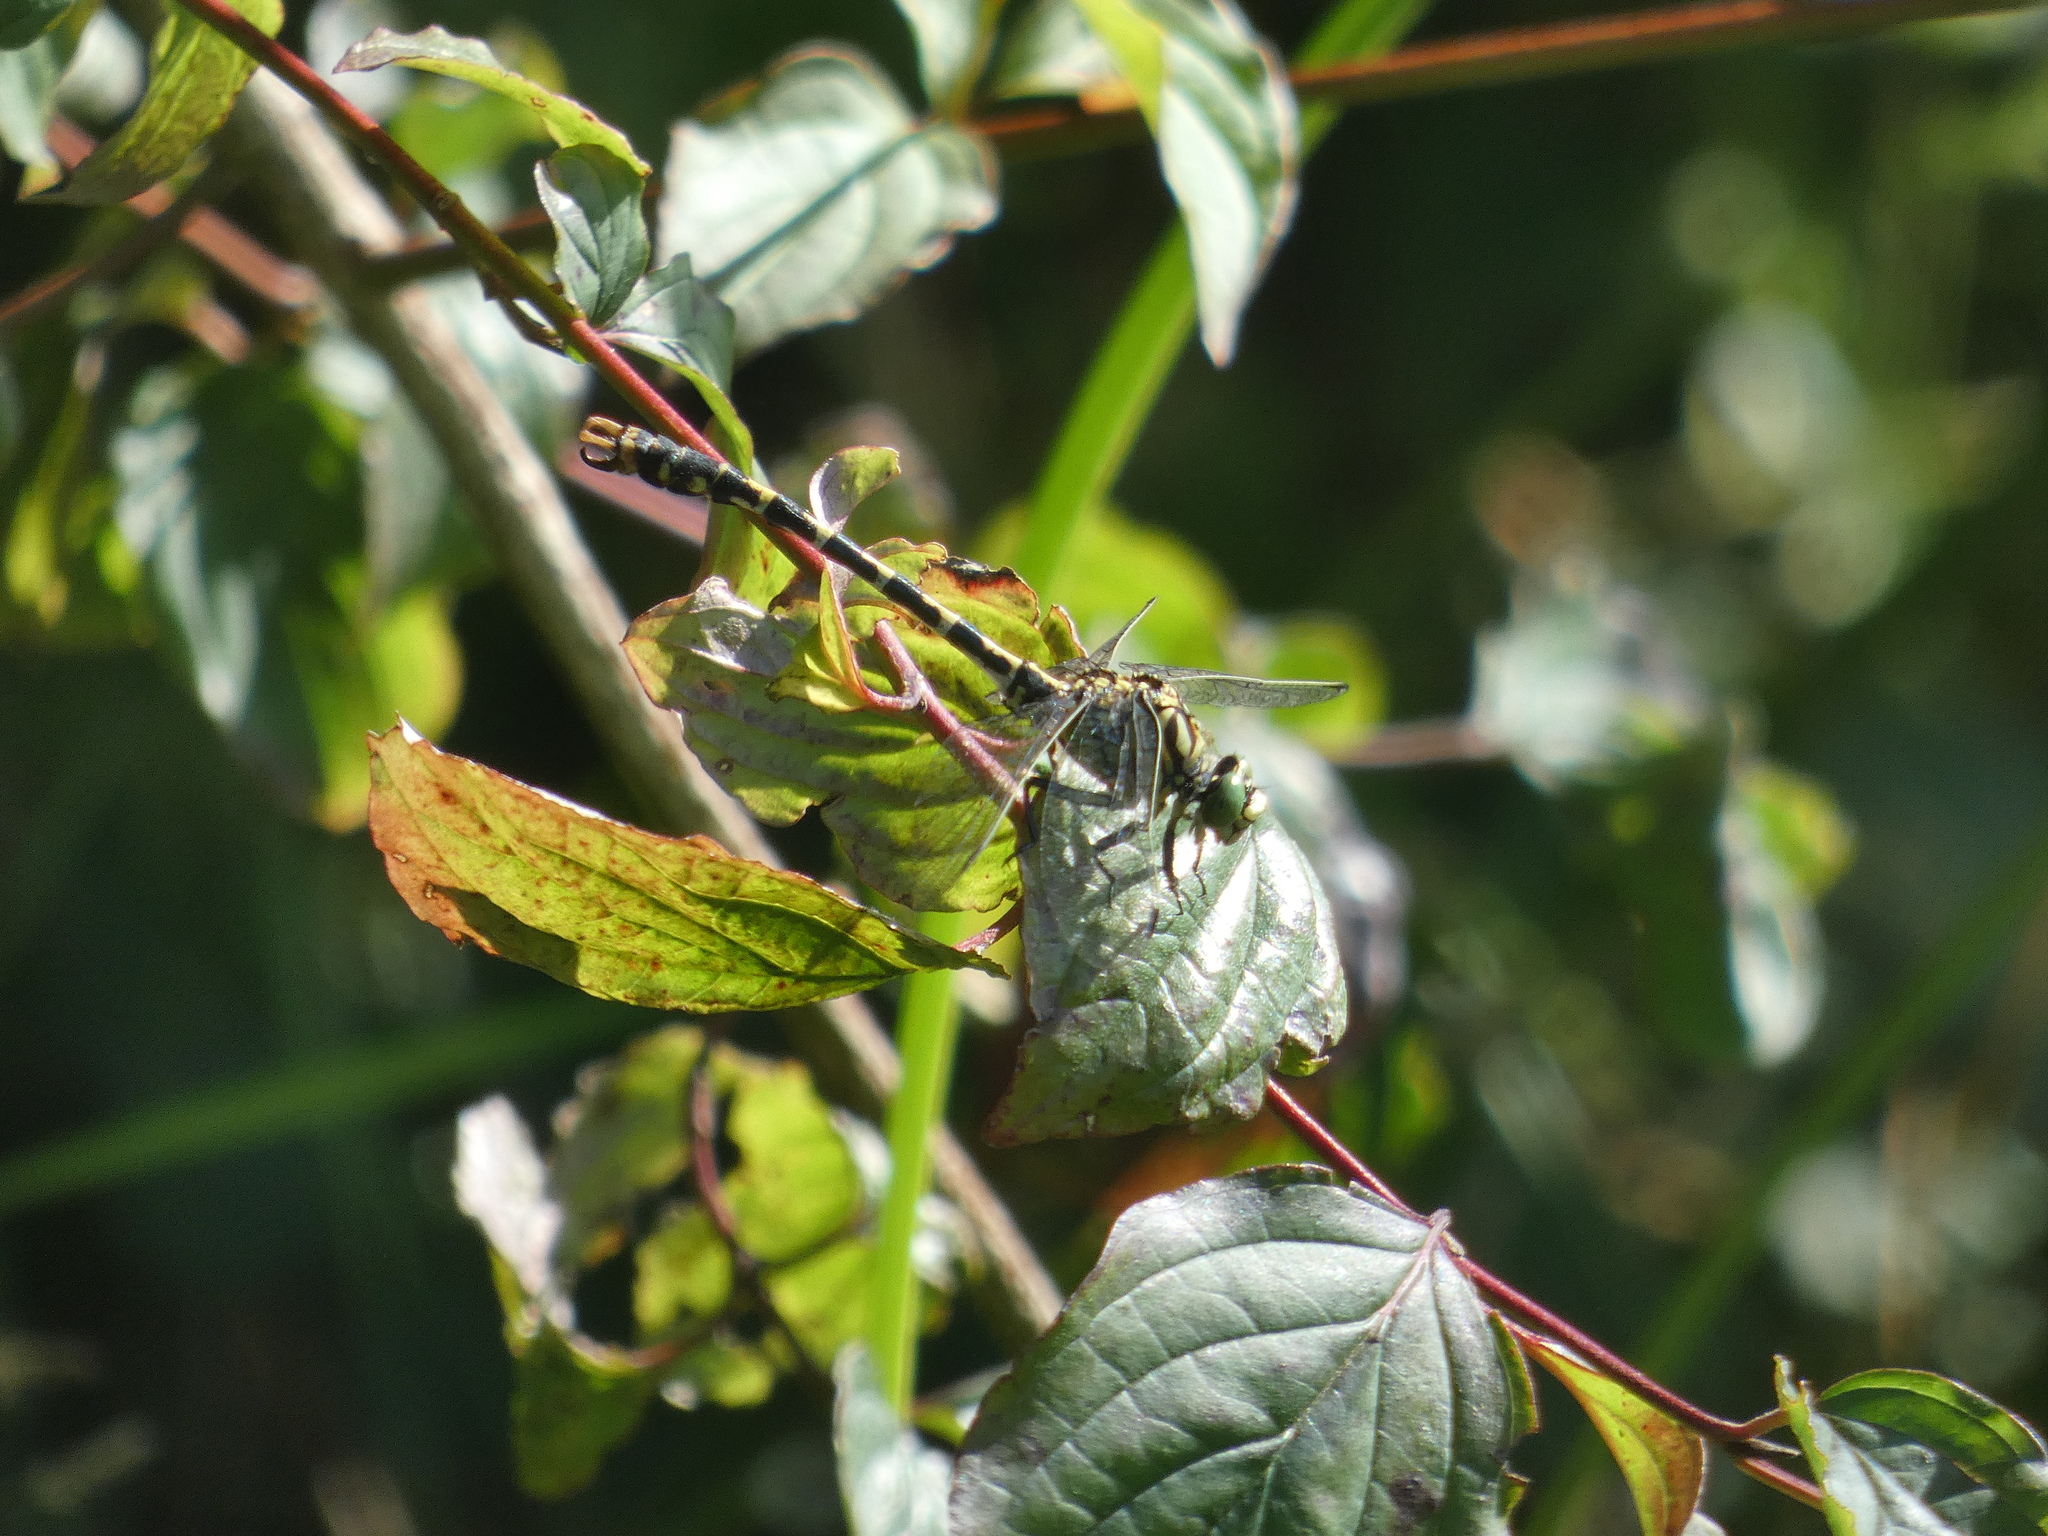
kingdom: Animalia
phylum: Arthropoda
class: Insecta
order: Odonata
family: Gomphidae
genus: Onychogomphus
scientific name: Onychogomphus forcipatus
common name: Small pincertail
